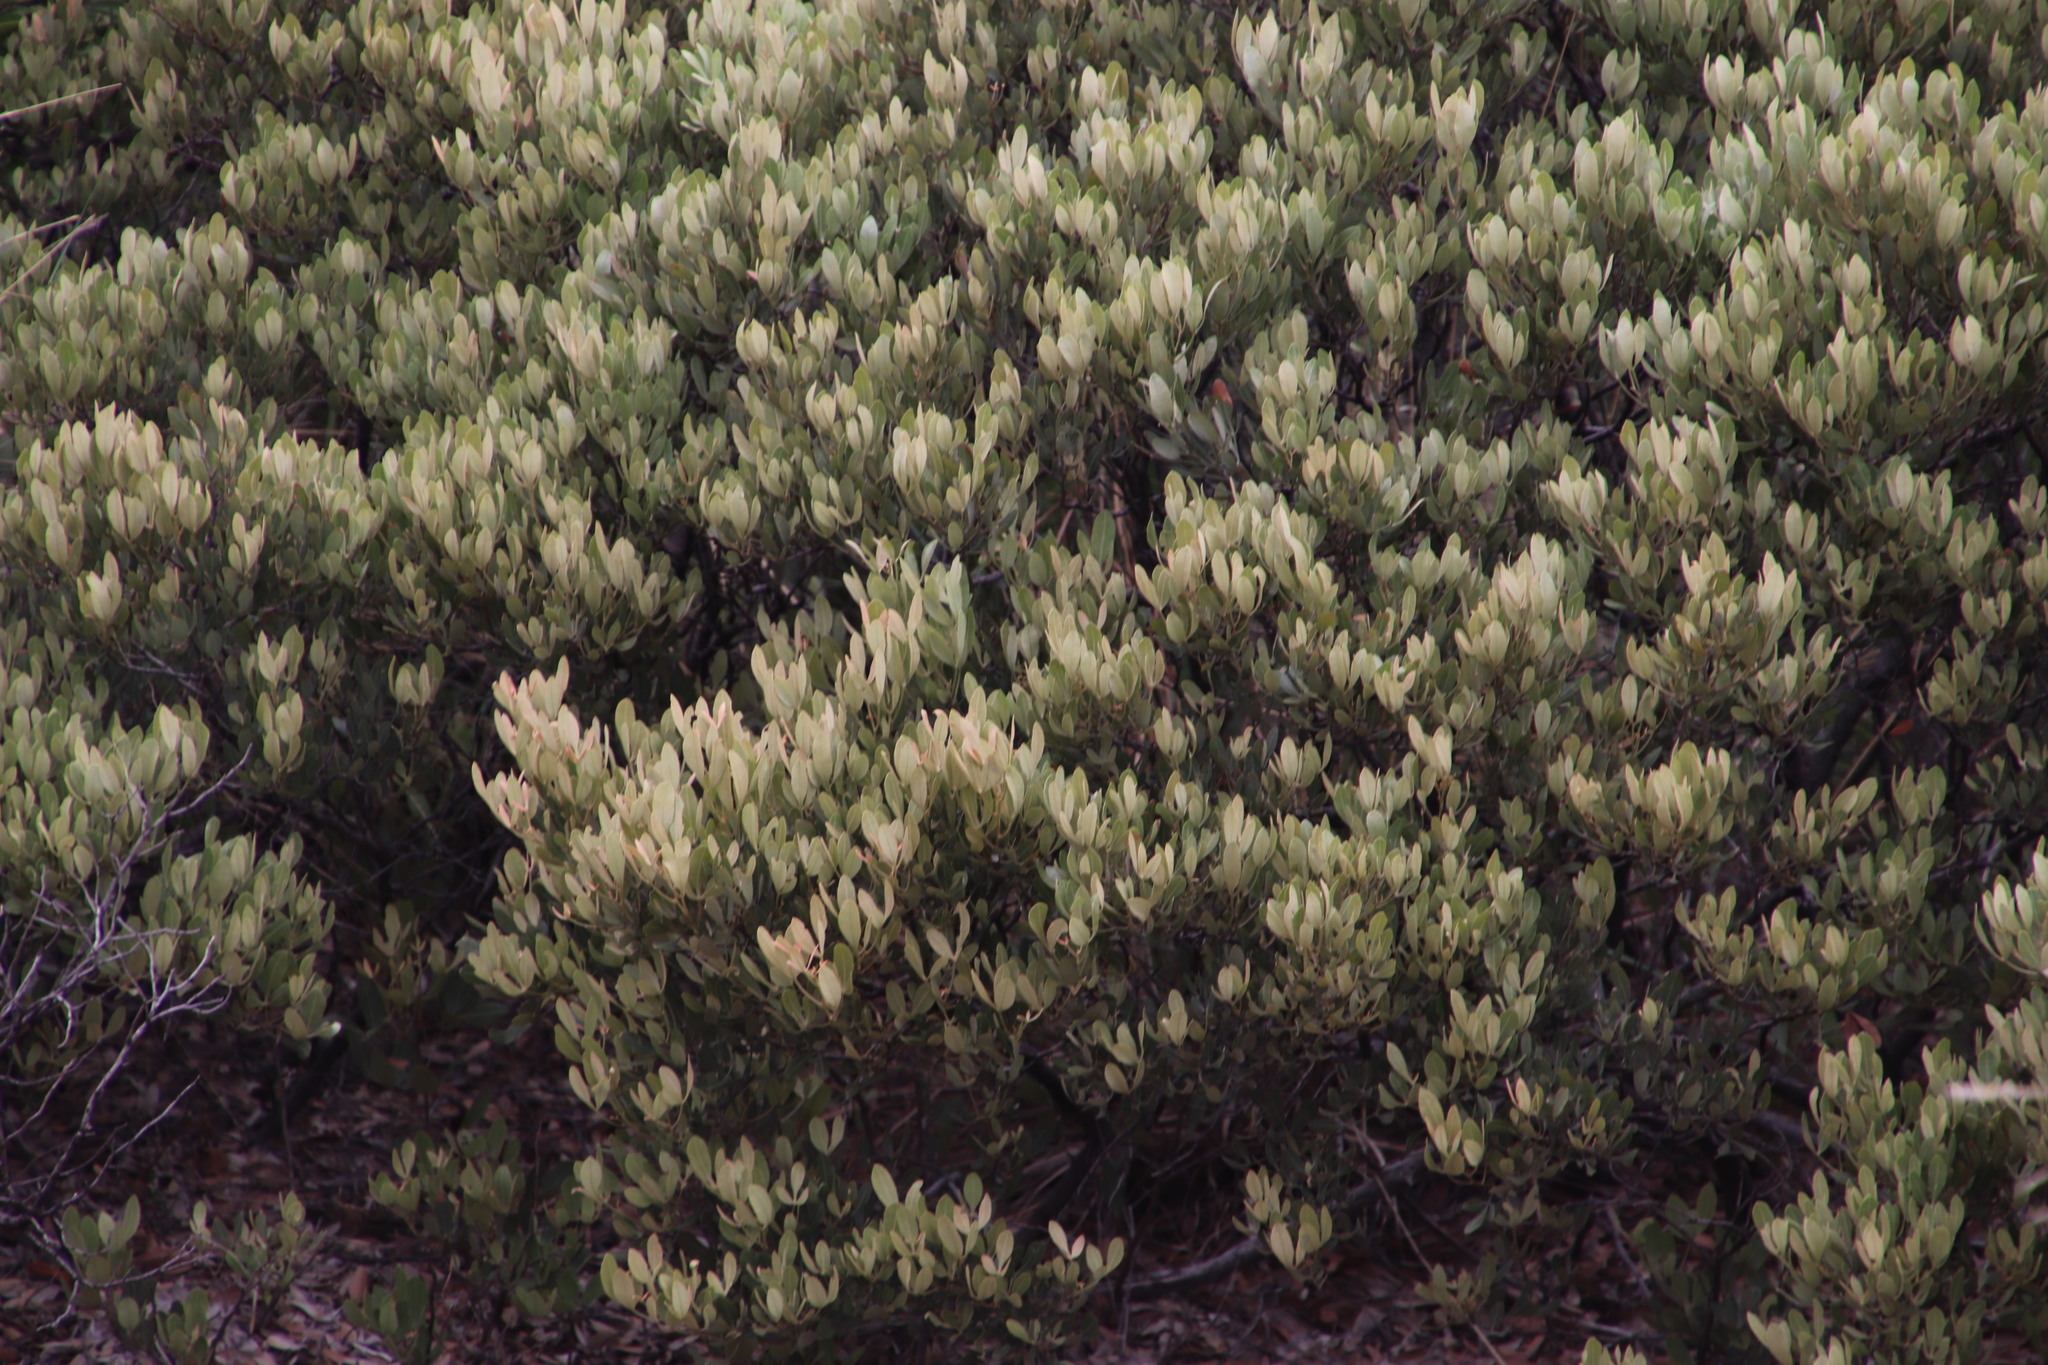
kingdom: Plantae
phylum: Tracheophyta
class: Magnoliopsida
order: Sapindales
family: Anacardiaceae
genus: Searsia
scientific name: Searsia magalismontana
